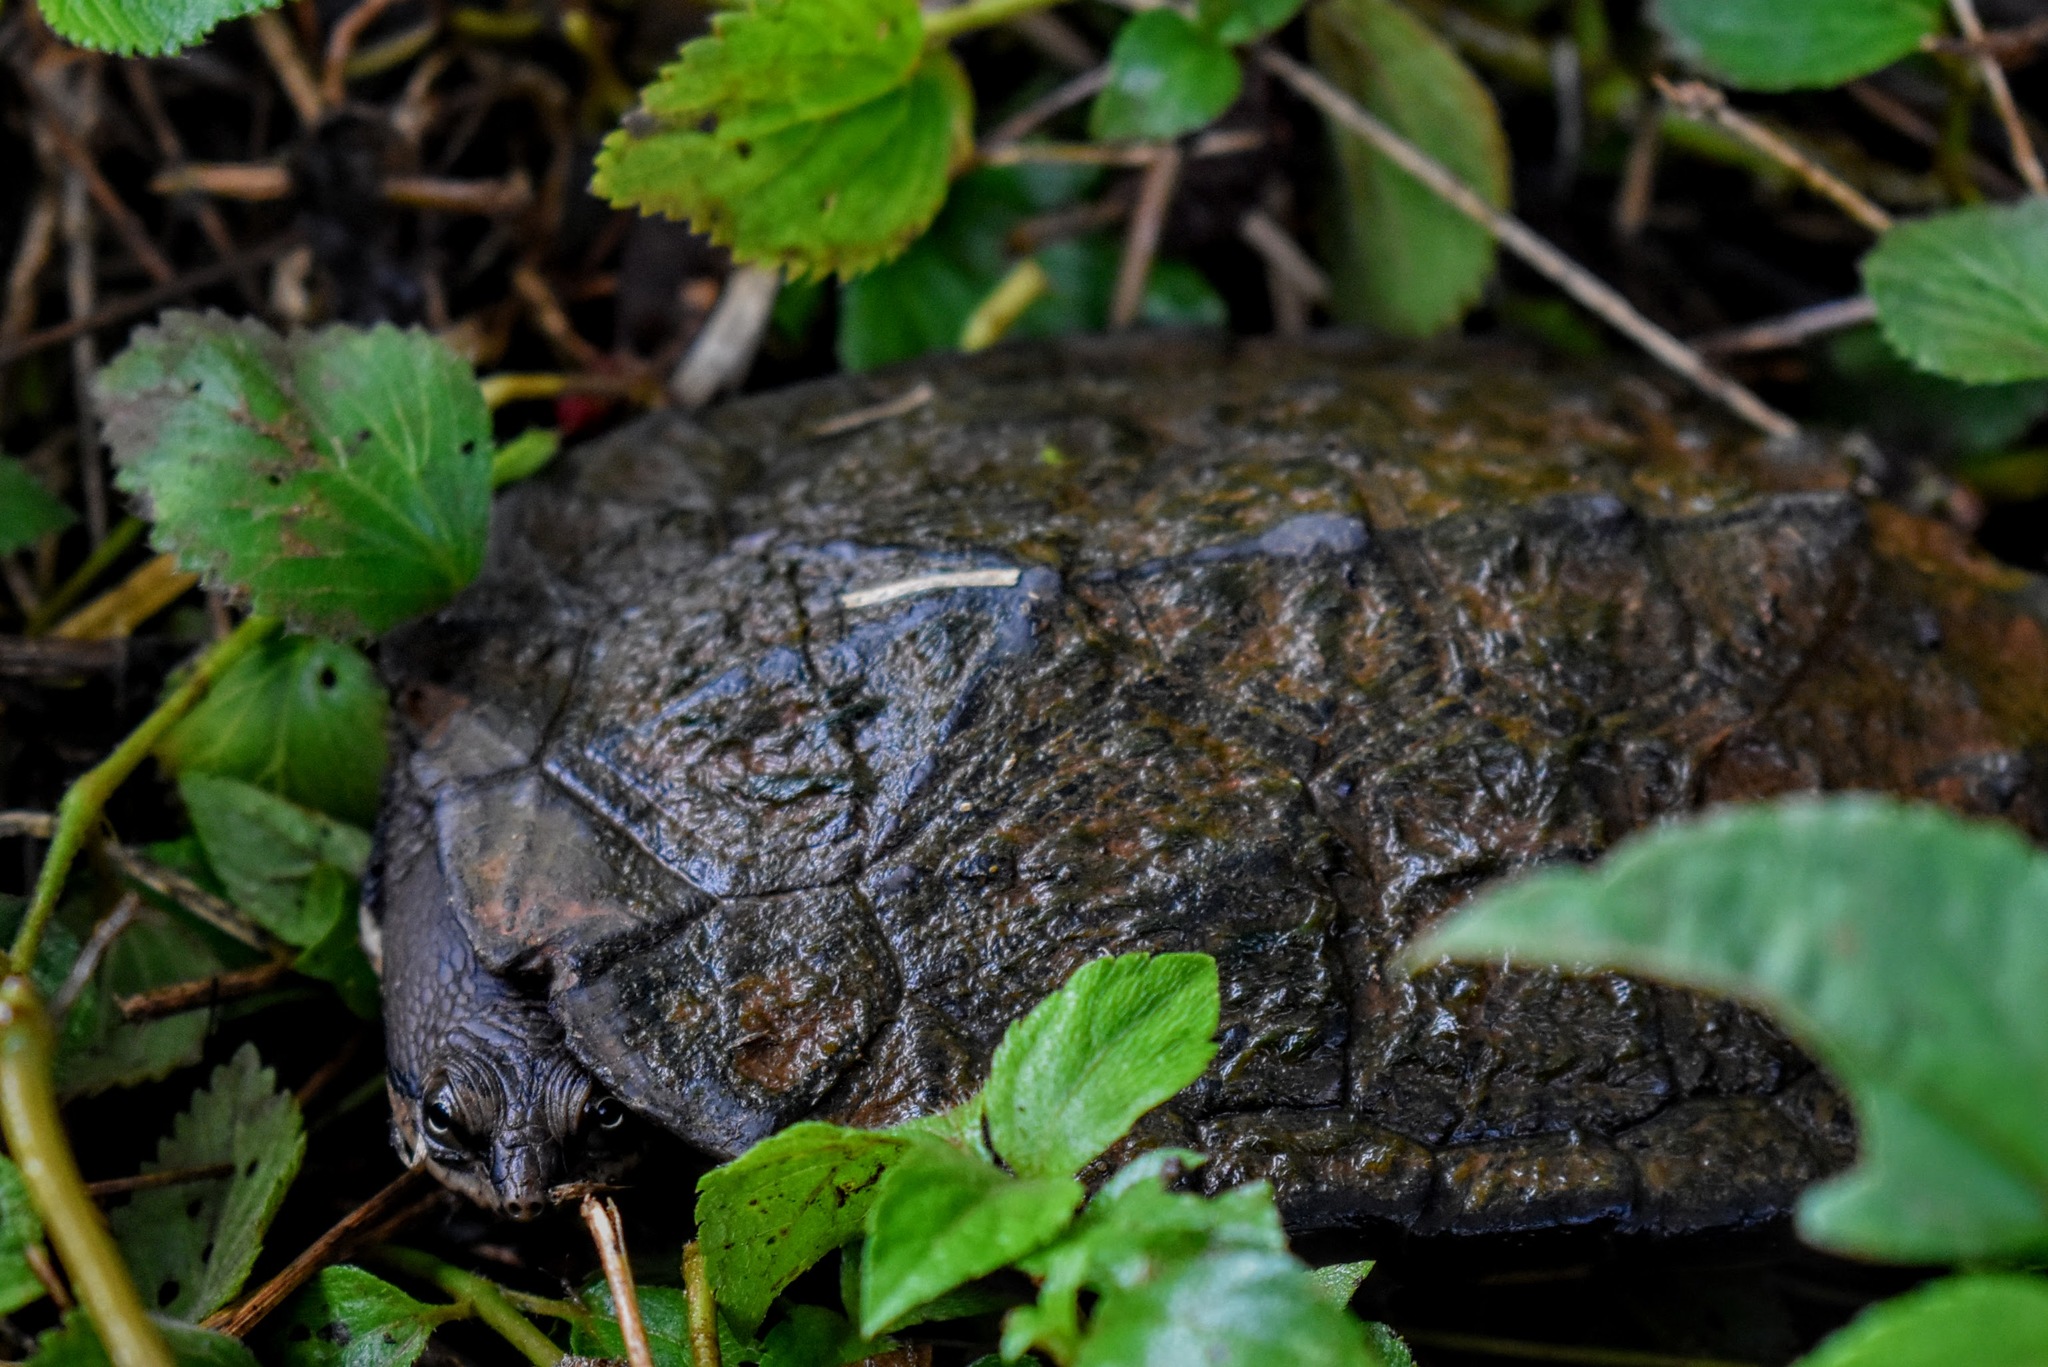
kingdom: Animalia
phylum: Chordata
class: Testudines
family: Chelidae
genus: Hydromedusa
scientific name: Hydromedusa tectifera
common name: Argentine snake-necked turtle
